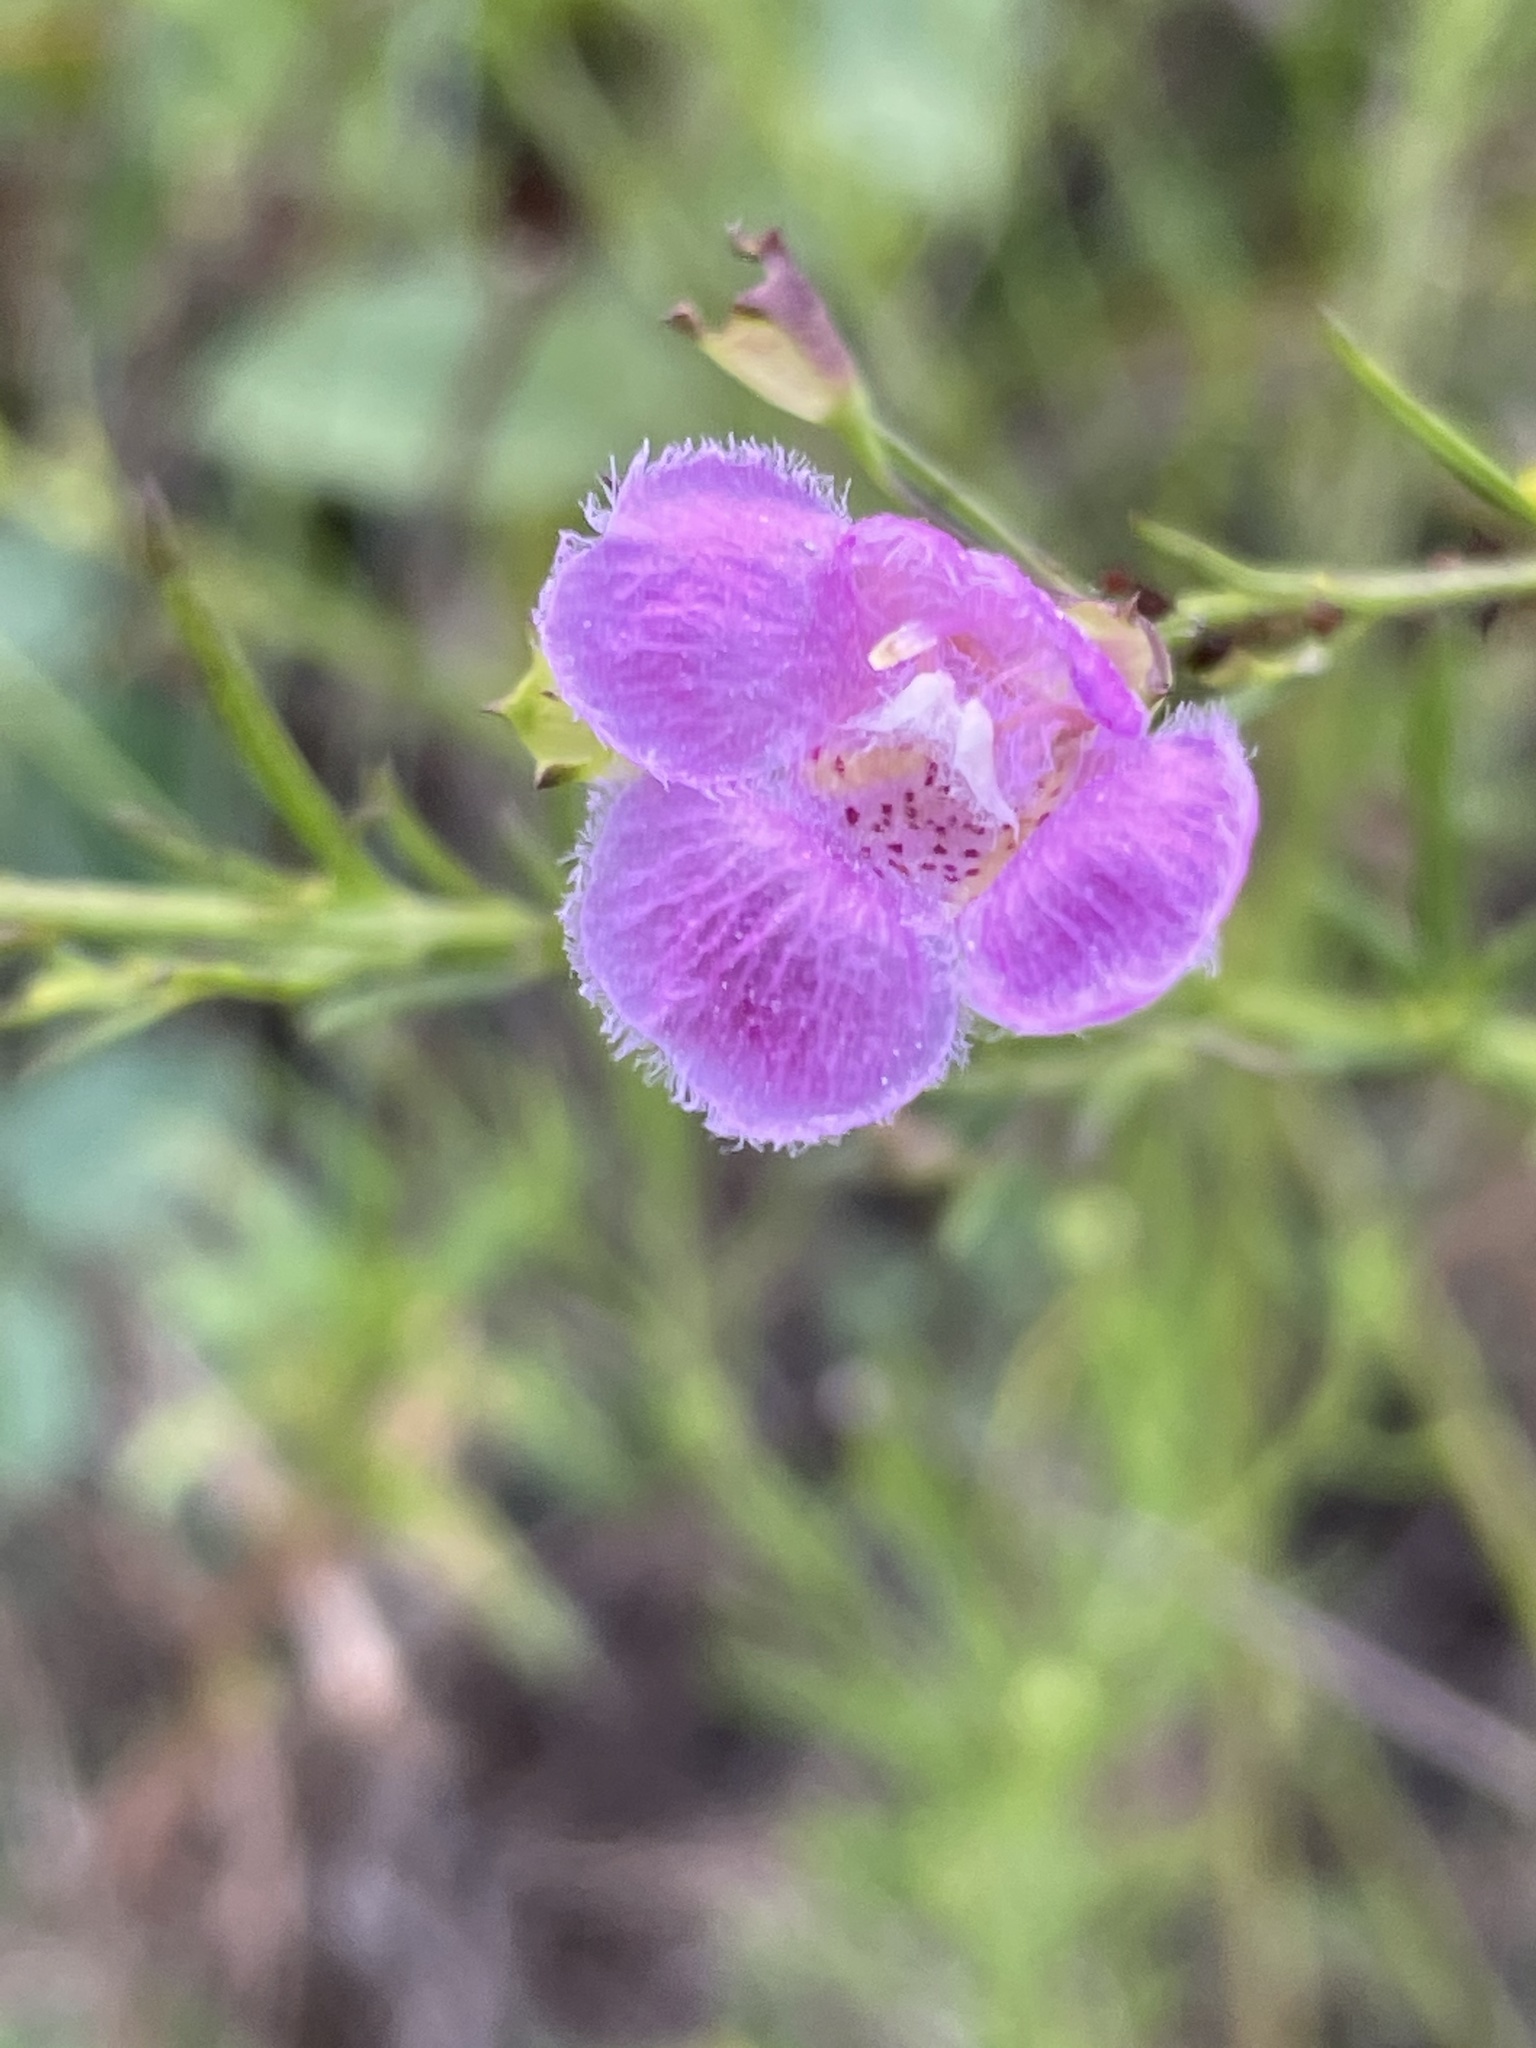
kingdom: Plantae
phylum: Tracheophyta
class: Magnoliopsida
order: Lamiales
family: Orobanchaceae
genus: Agalinis
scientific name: Agalinis homalantha
